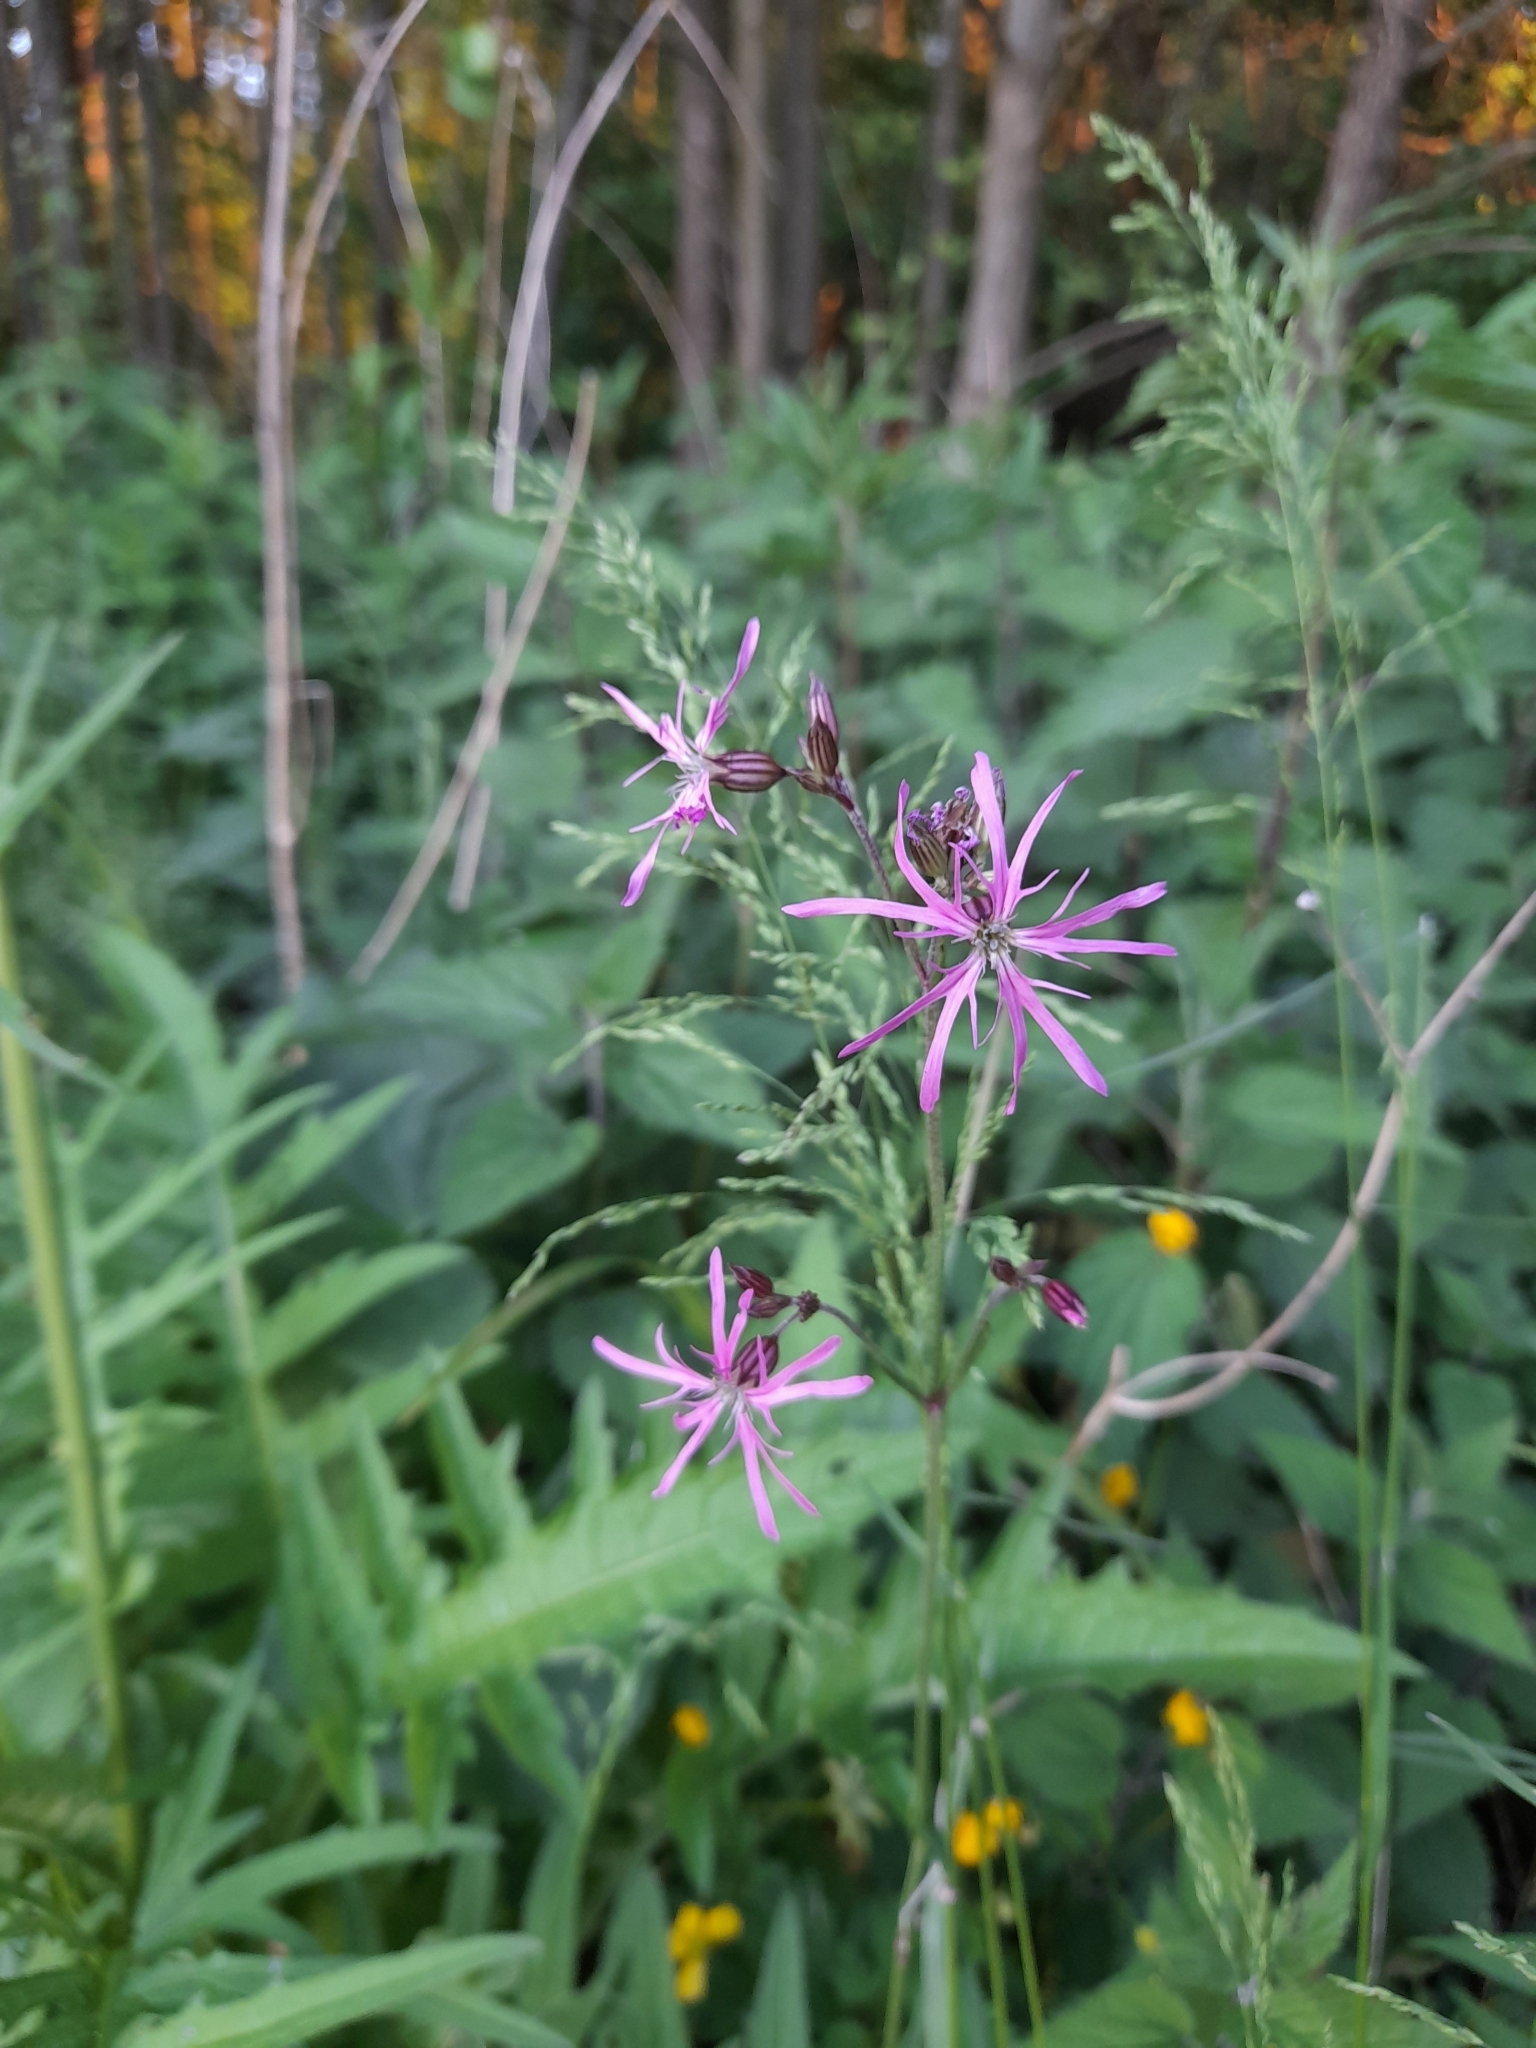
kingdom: Plantae
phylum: Tracheophyta
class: Magnoliopsida
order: Caryophyllales
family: Caryophyllaceae
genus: Silene
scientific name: Silene flos-cuculi
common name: Ragged-robin
